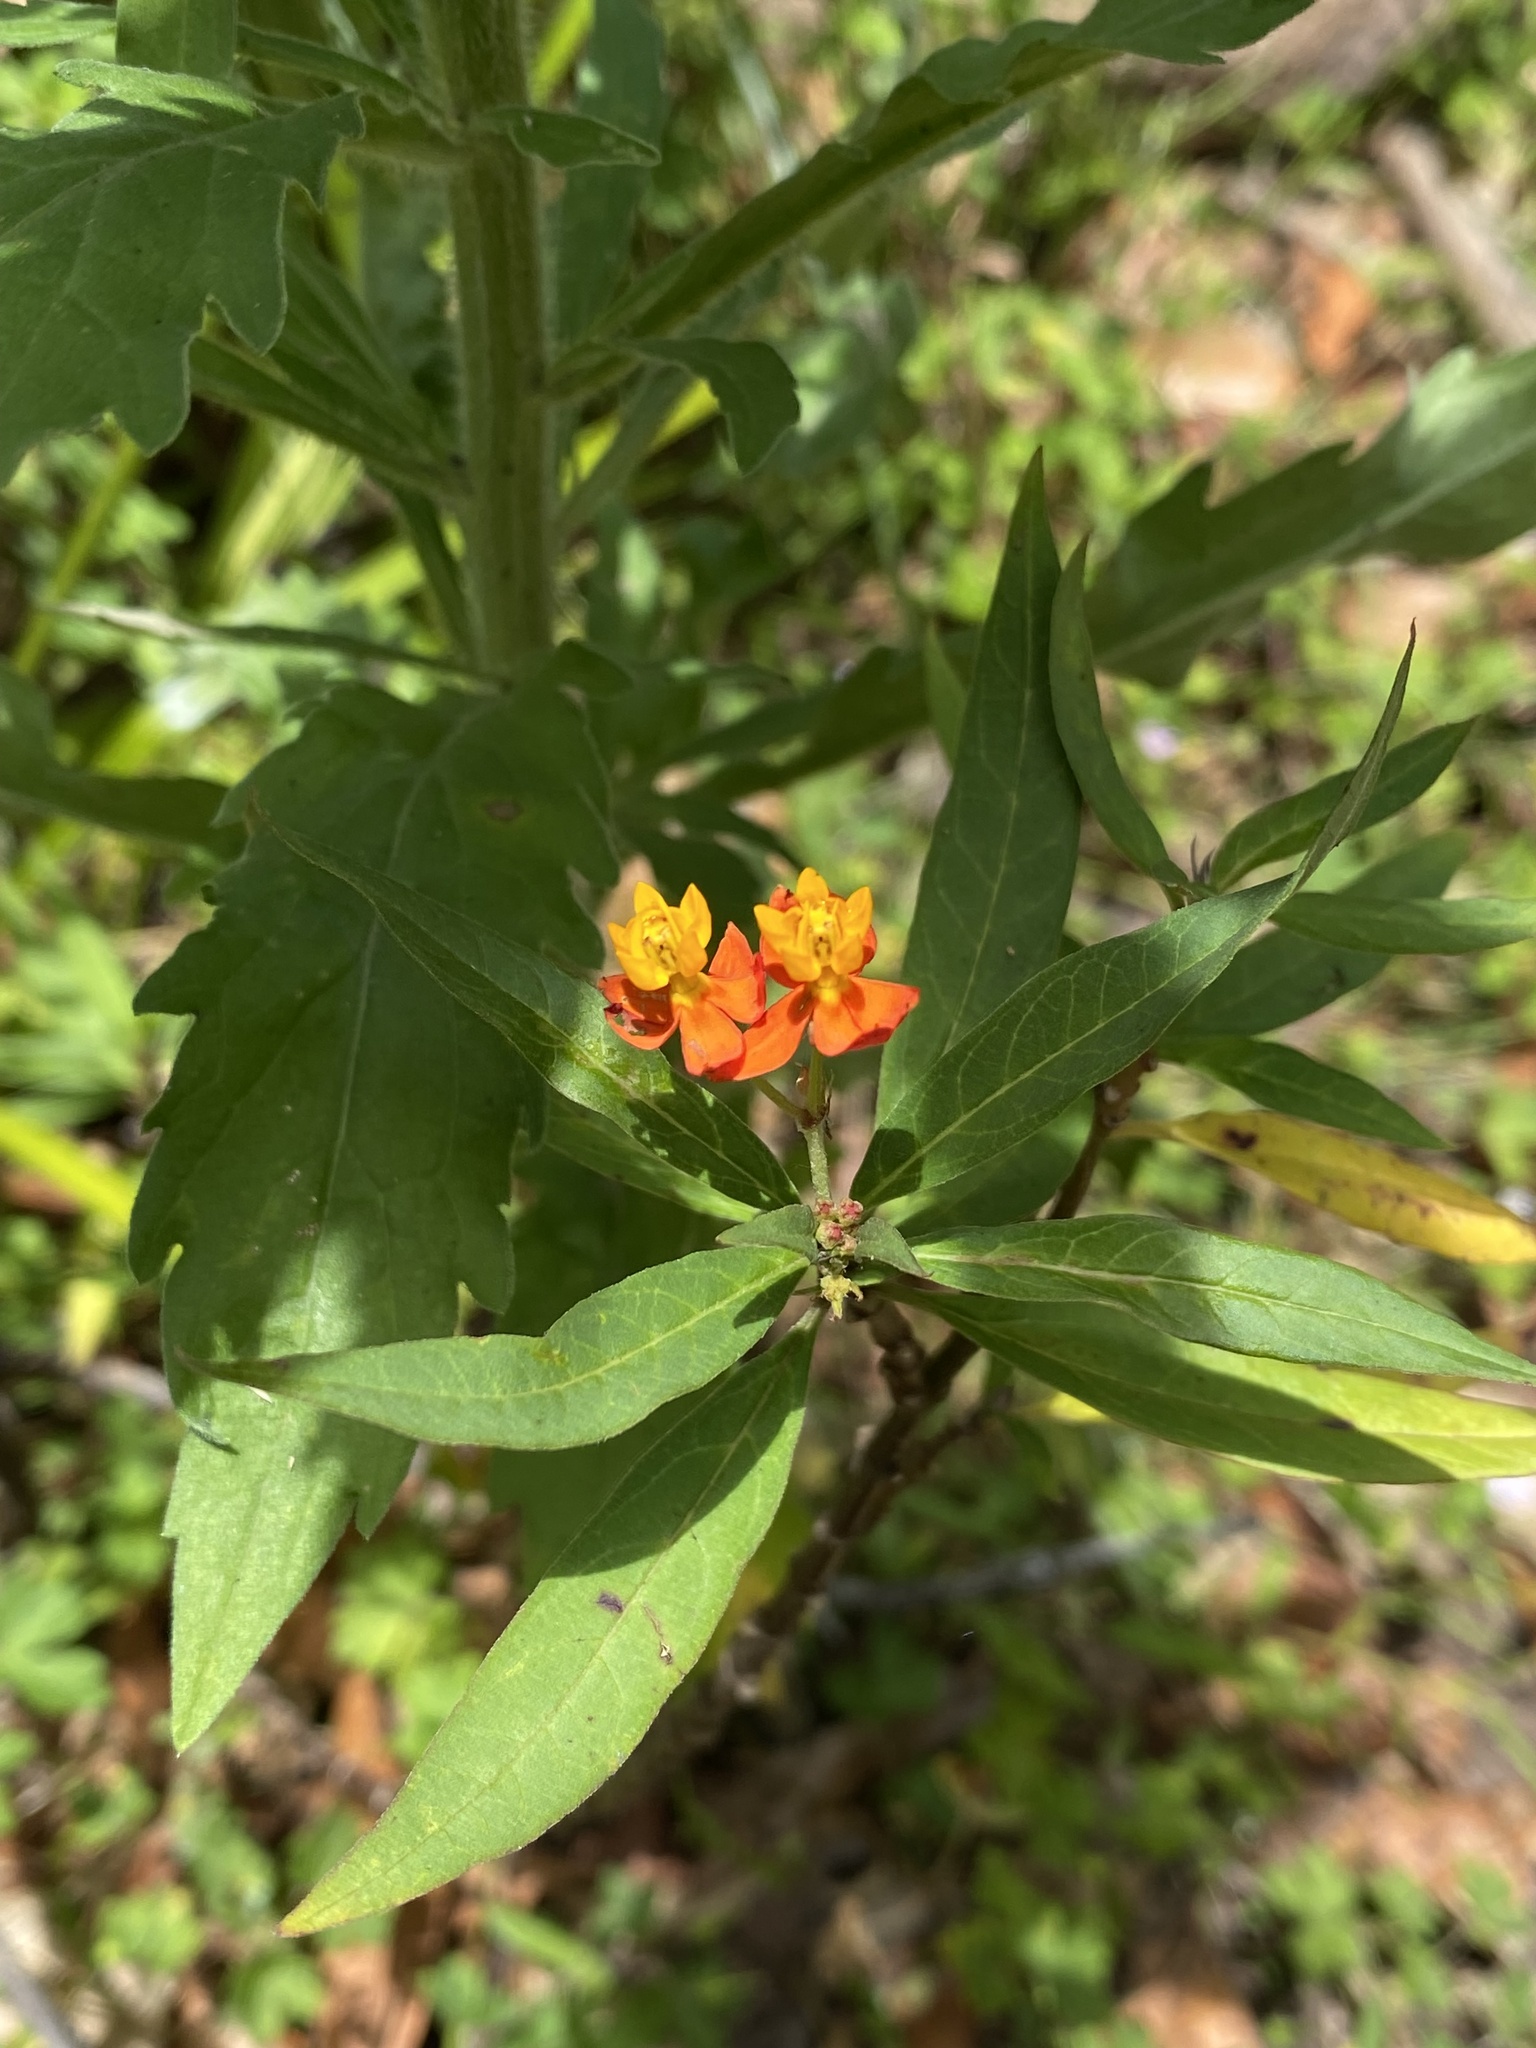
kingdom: Plantae
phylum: Tracheophyta
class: Magnoliopsida
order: Gentianales
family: Apocynaceae
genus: Asclepias
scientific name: Asclepias curassavica
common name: Bloodflower
